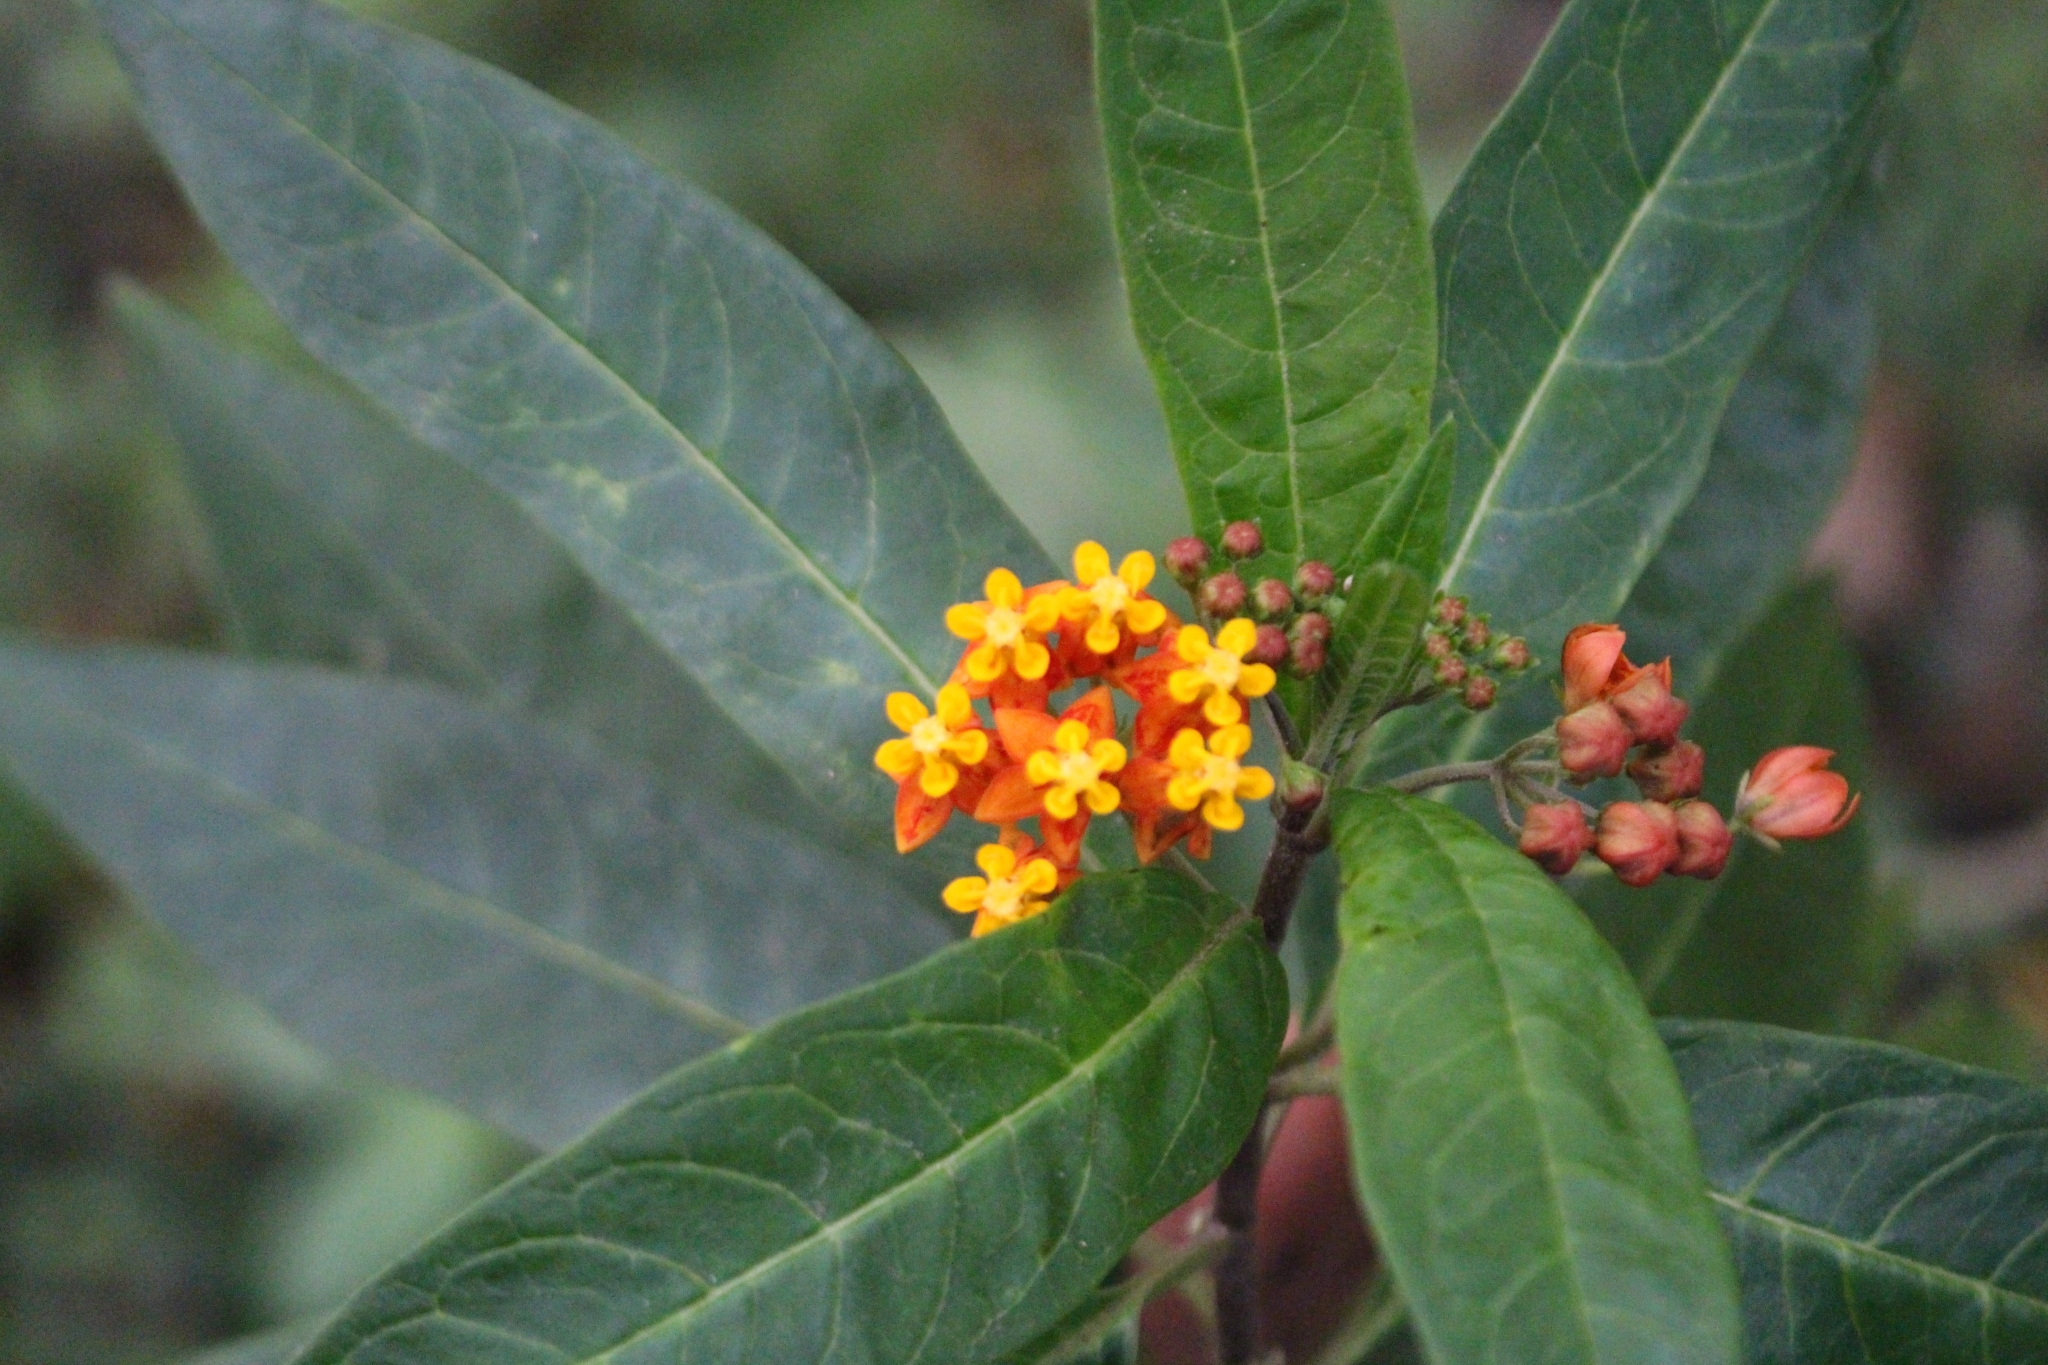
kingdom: Plantae
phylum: Tracheophyta
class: Magnoliopsida
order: Gentianales
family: Apocynaceae
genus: Asclepias
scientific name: Asclepias curassavica
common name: Bloodflower
